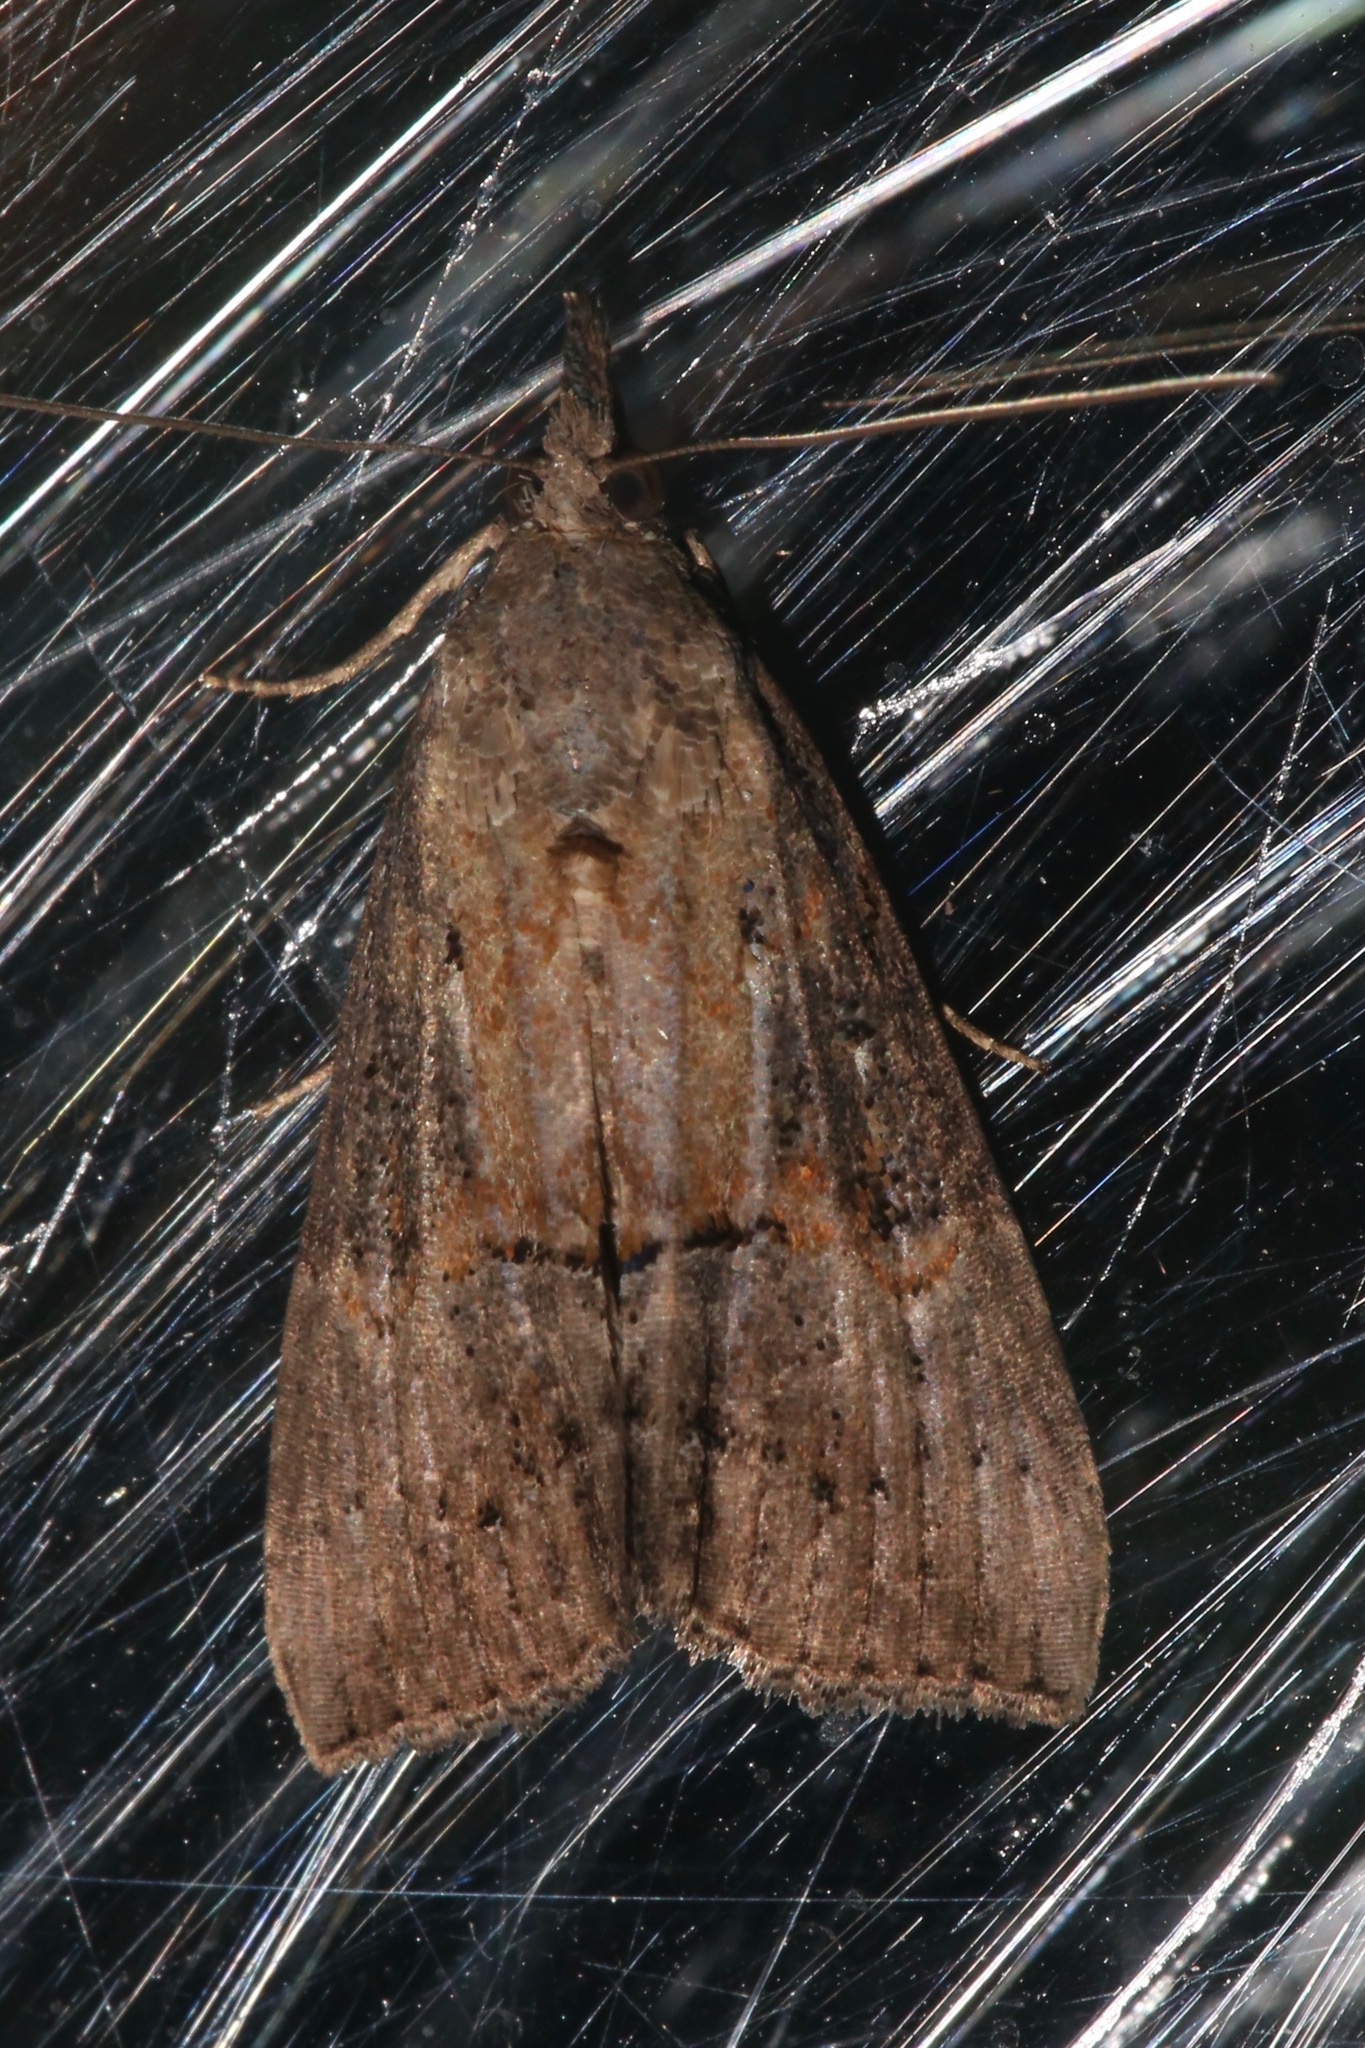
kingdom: Animalia
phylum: Arthropoda
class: Insecta
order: Lepidoptera
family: Erebidae
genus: Hypena
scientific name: Hypena scabra
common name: Green cloverworm
